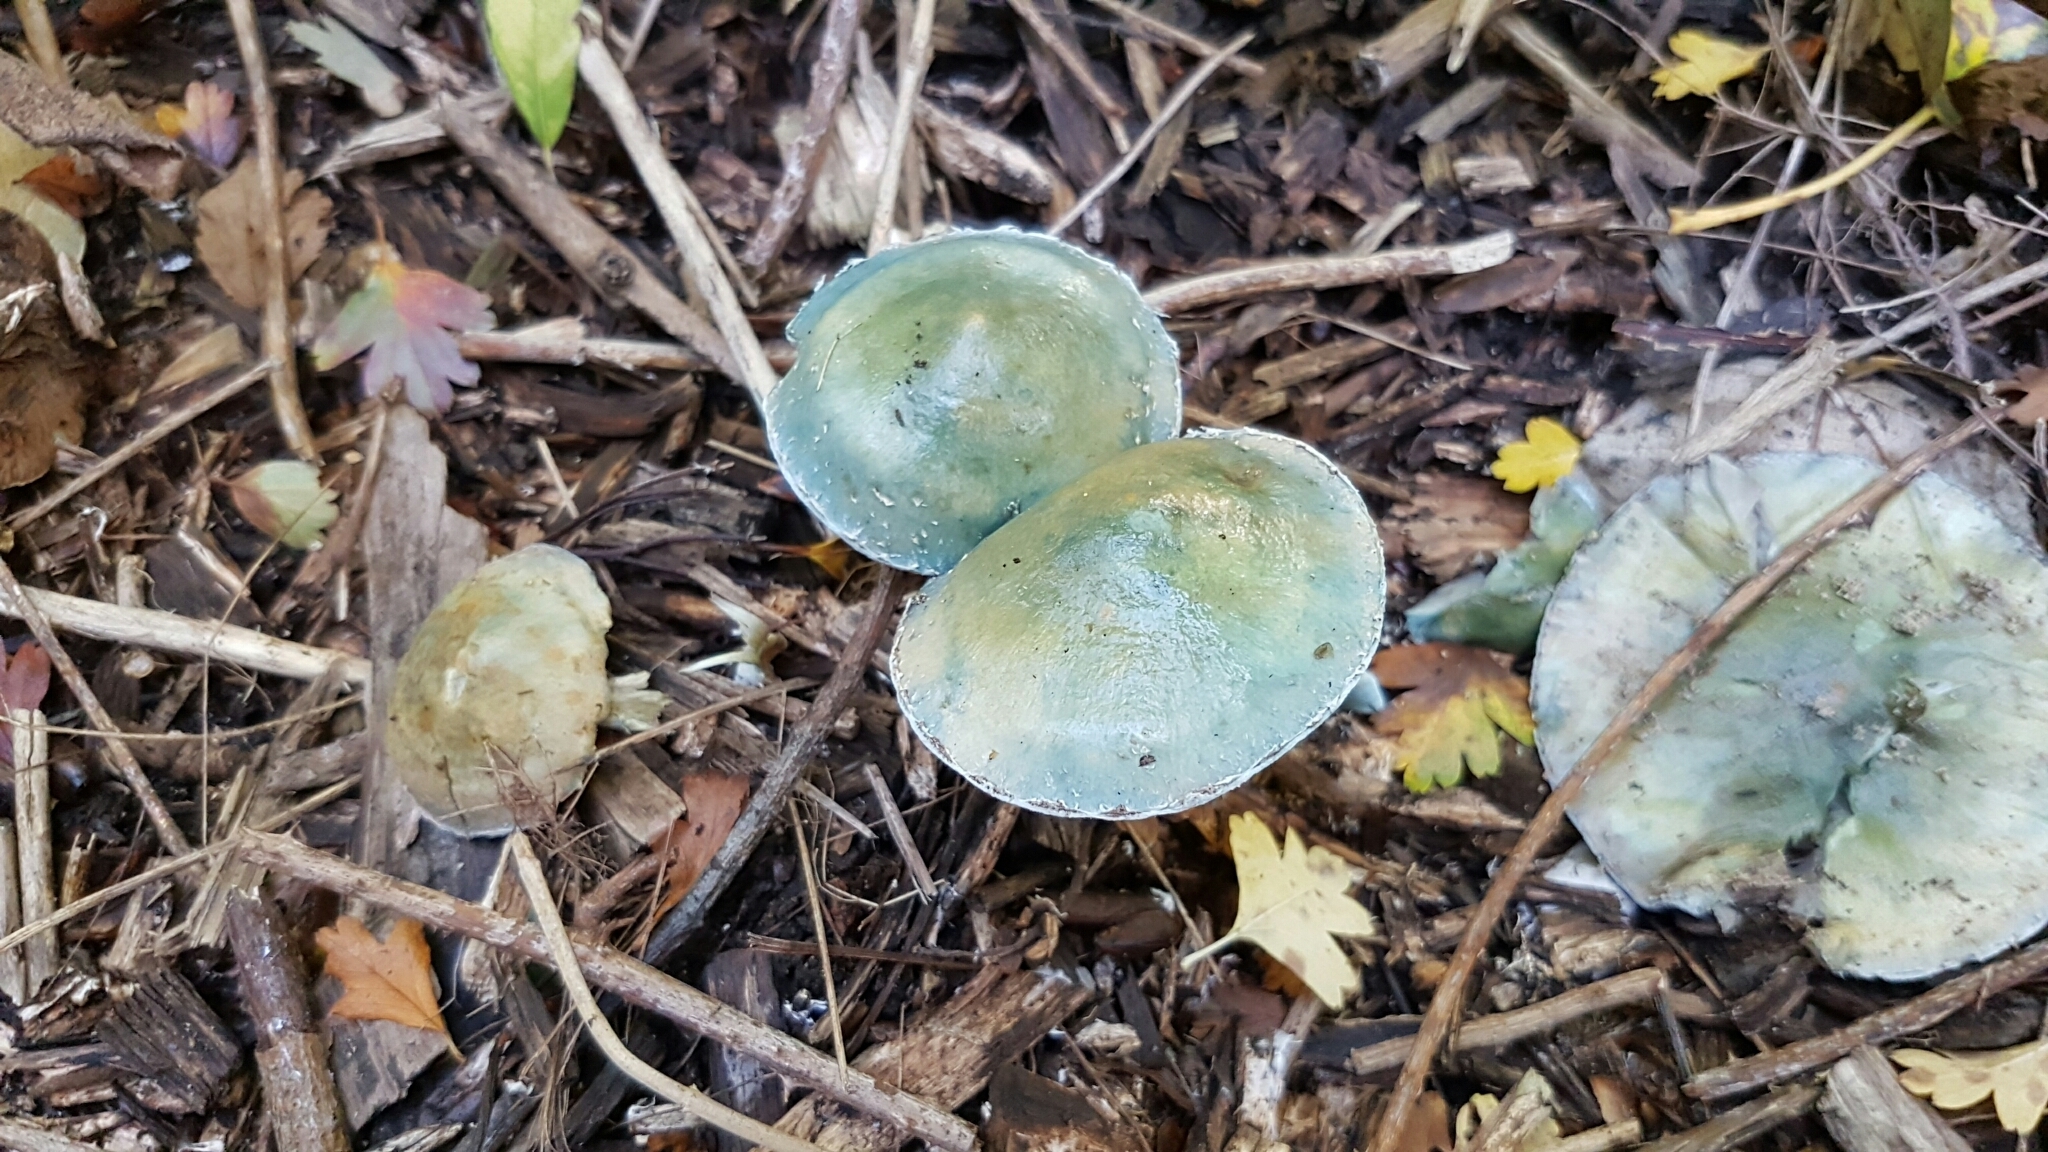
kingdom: Fungi
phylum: Basidiomycota
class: Agaricomycetes
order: Agaricales
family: Strophariaceae
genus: Stropharia
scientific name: Stropharia caerulea
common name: Blue roundhead
